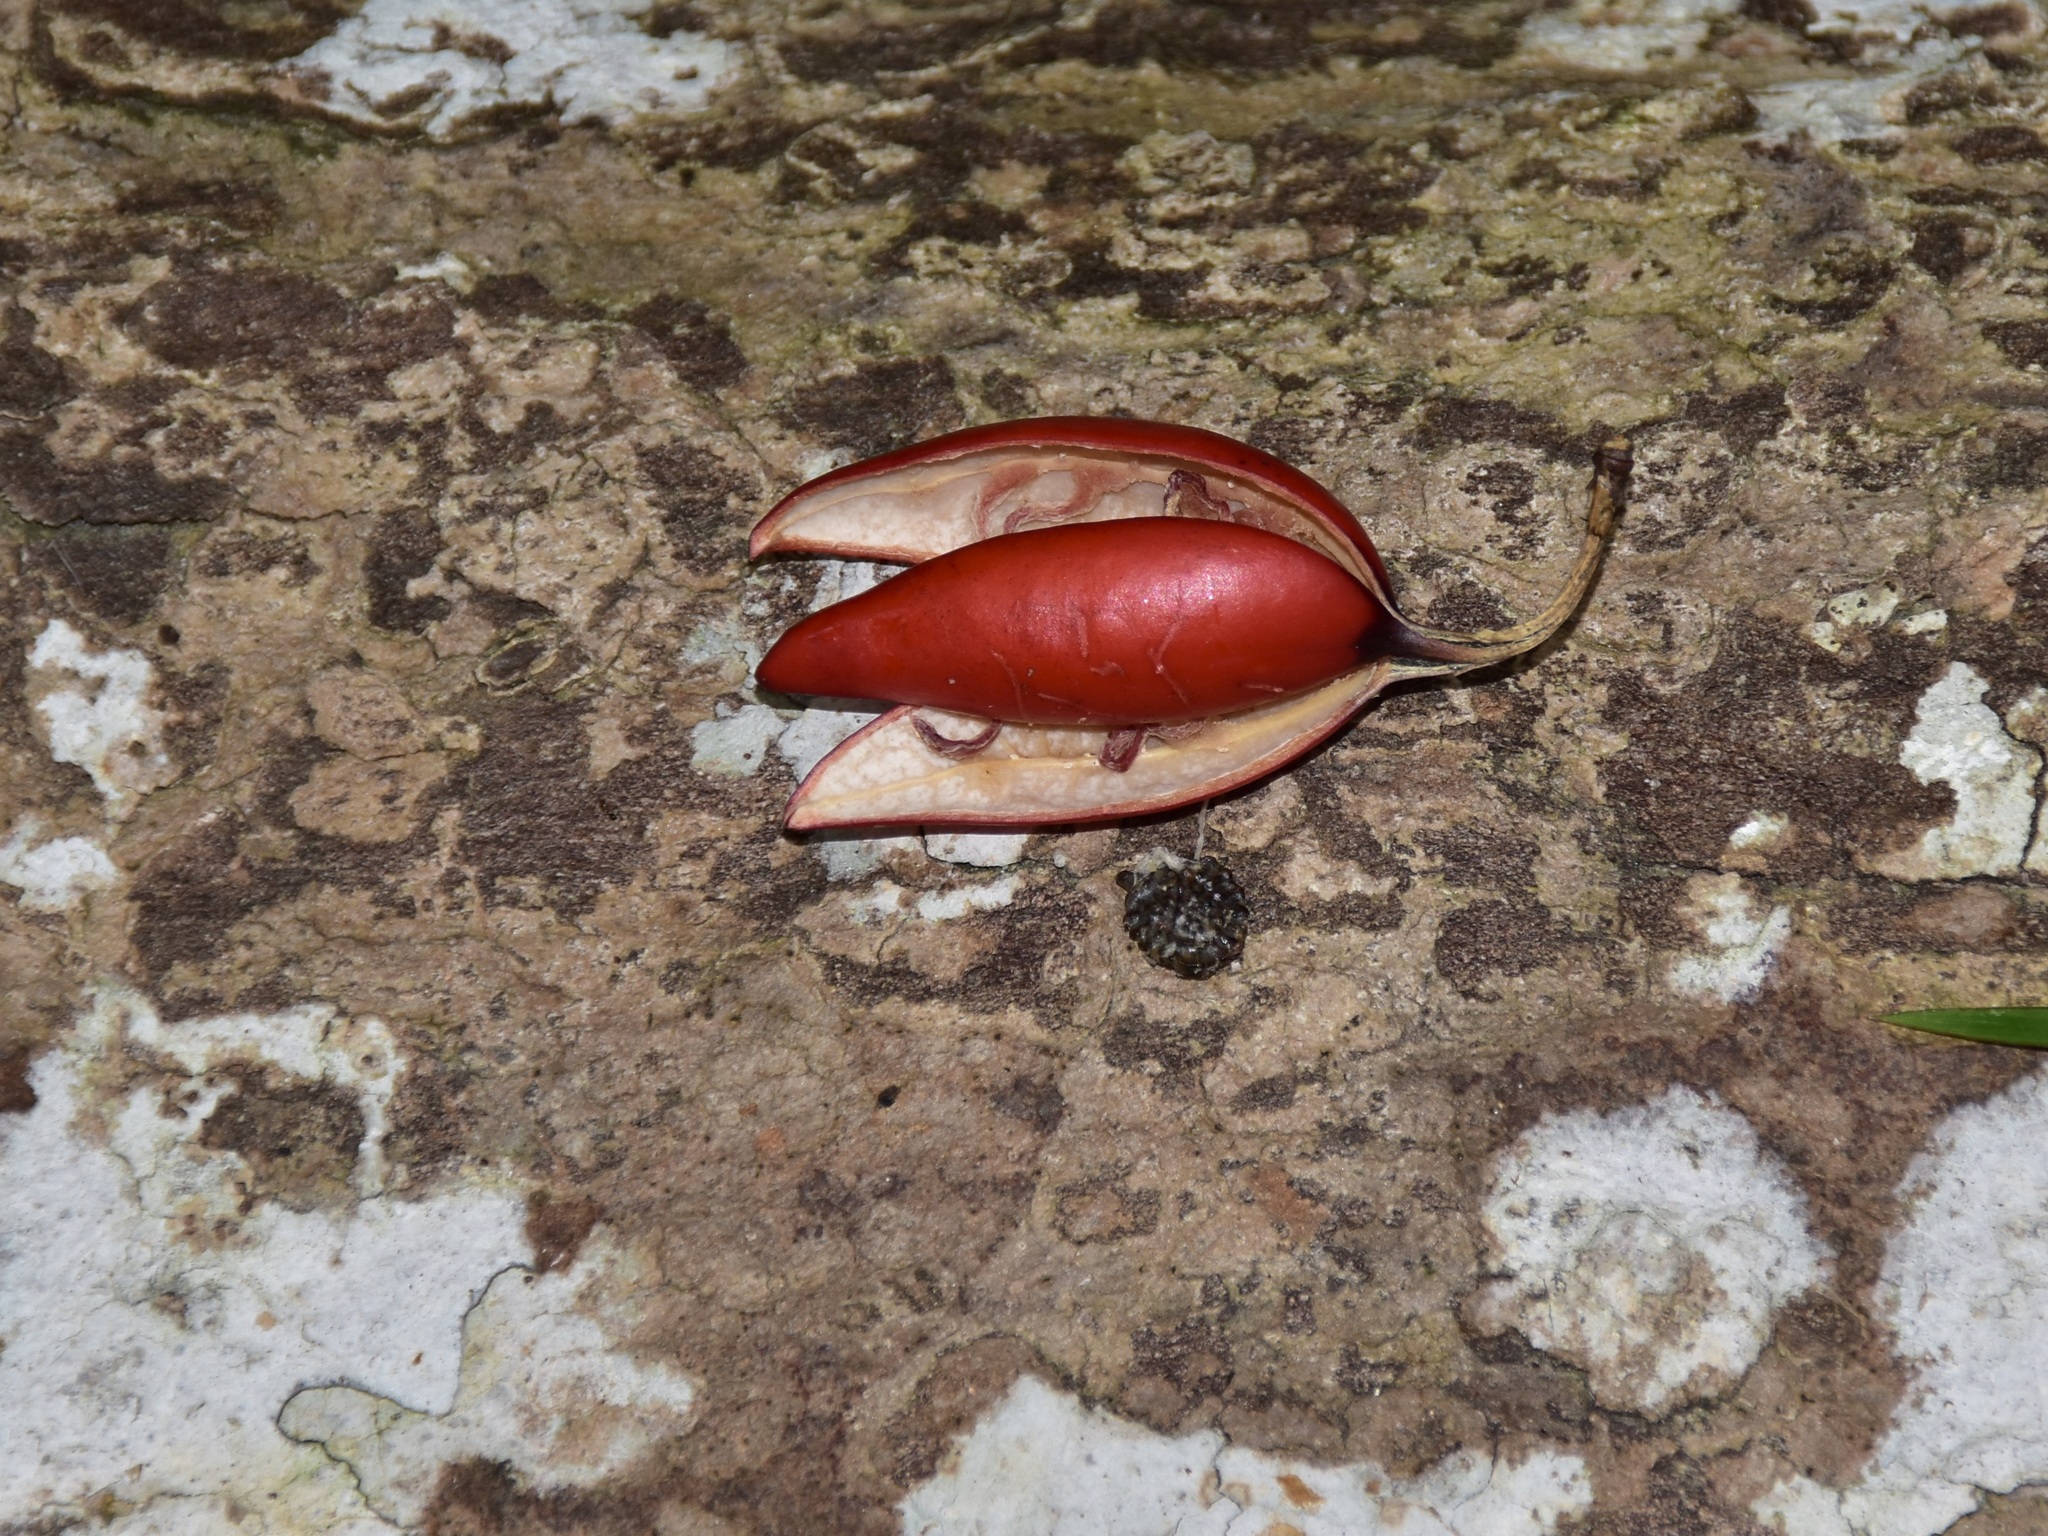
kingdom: Plantae
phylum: Tracheophyta
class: Magnoliopsida
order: Malpighiales
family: Passifloraceae
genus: Adenia
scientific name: Adenia macrophylla
